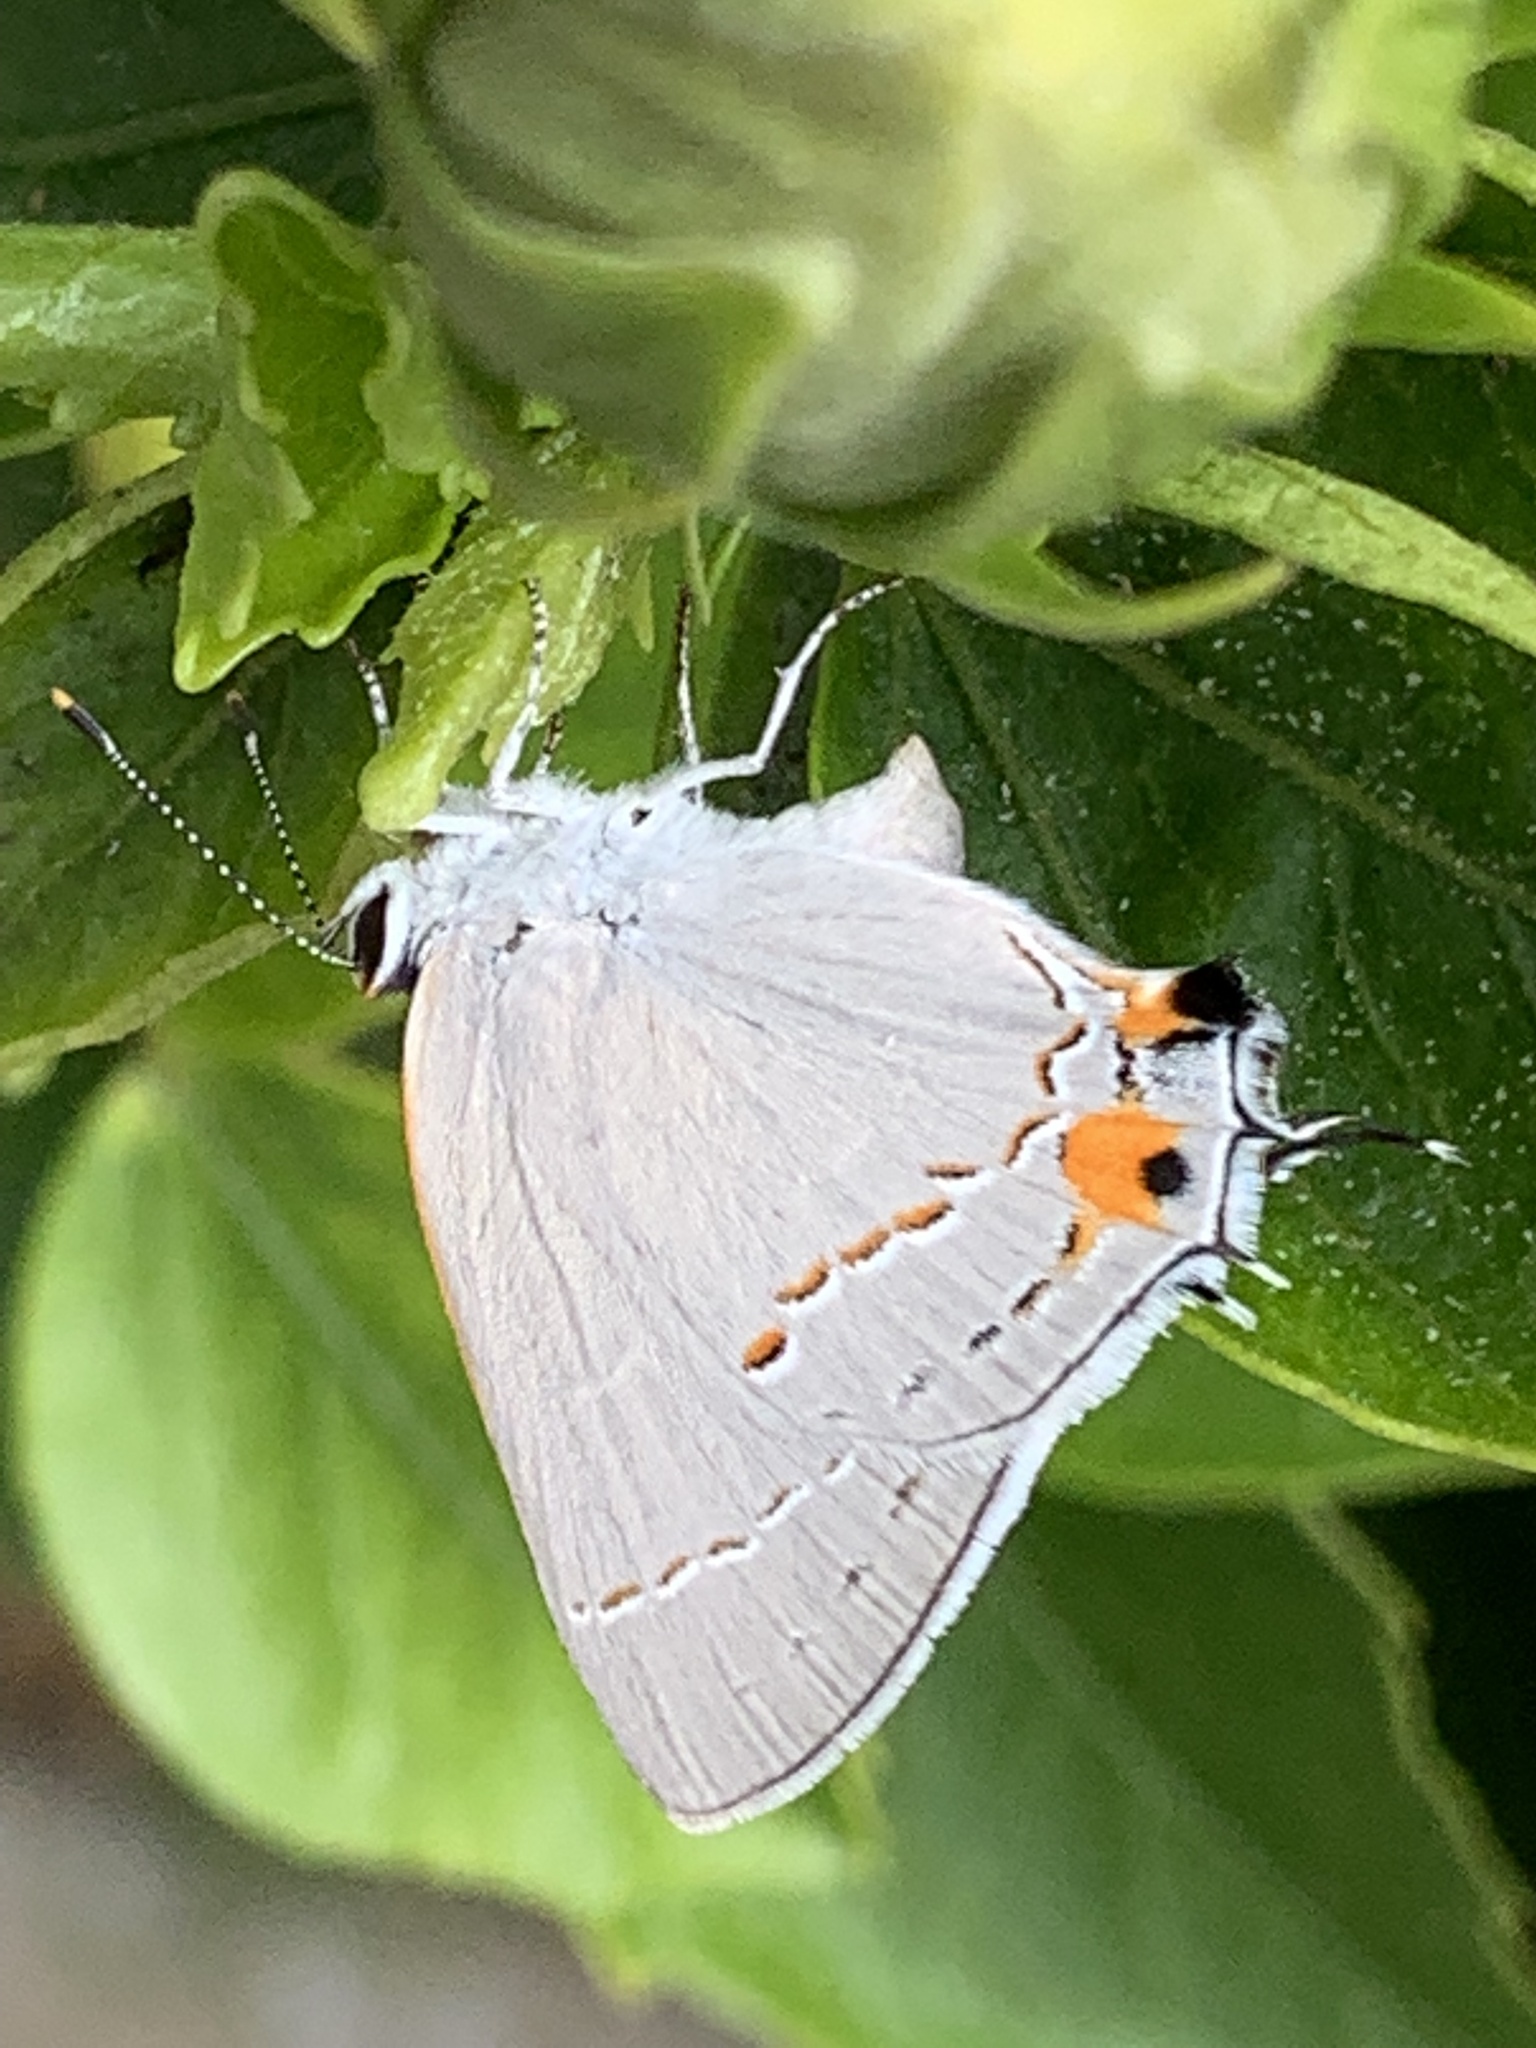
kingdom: Animalia
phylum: Arthropoda
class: Insecta
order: Lepidoptera
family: Lycaenidae
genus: Strymon
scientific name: Strymon melinus
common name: Gray hairstreak
